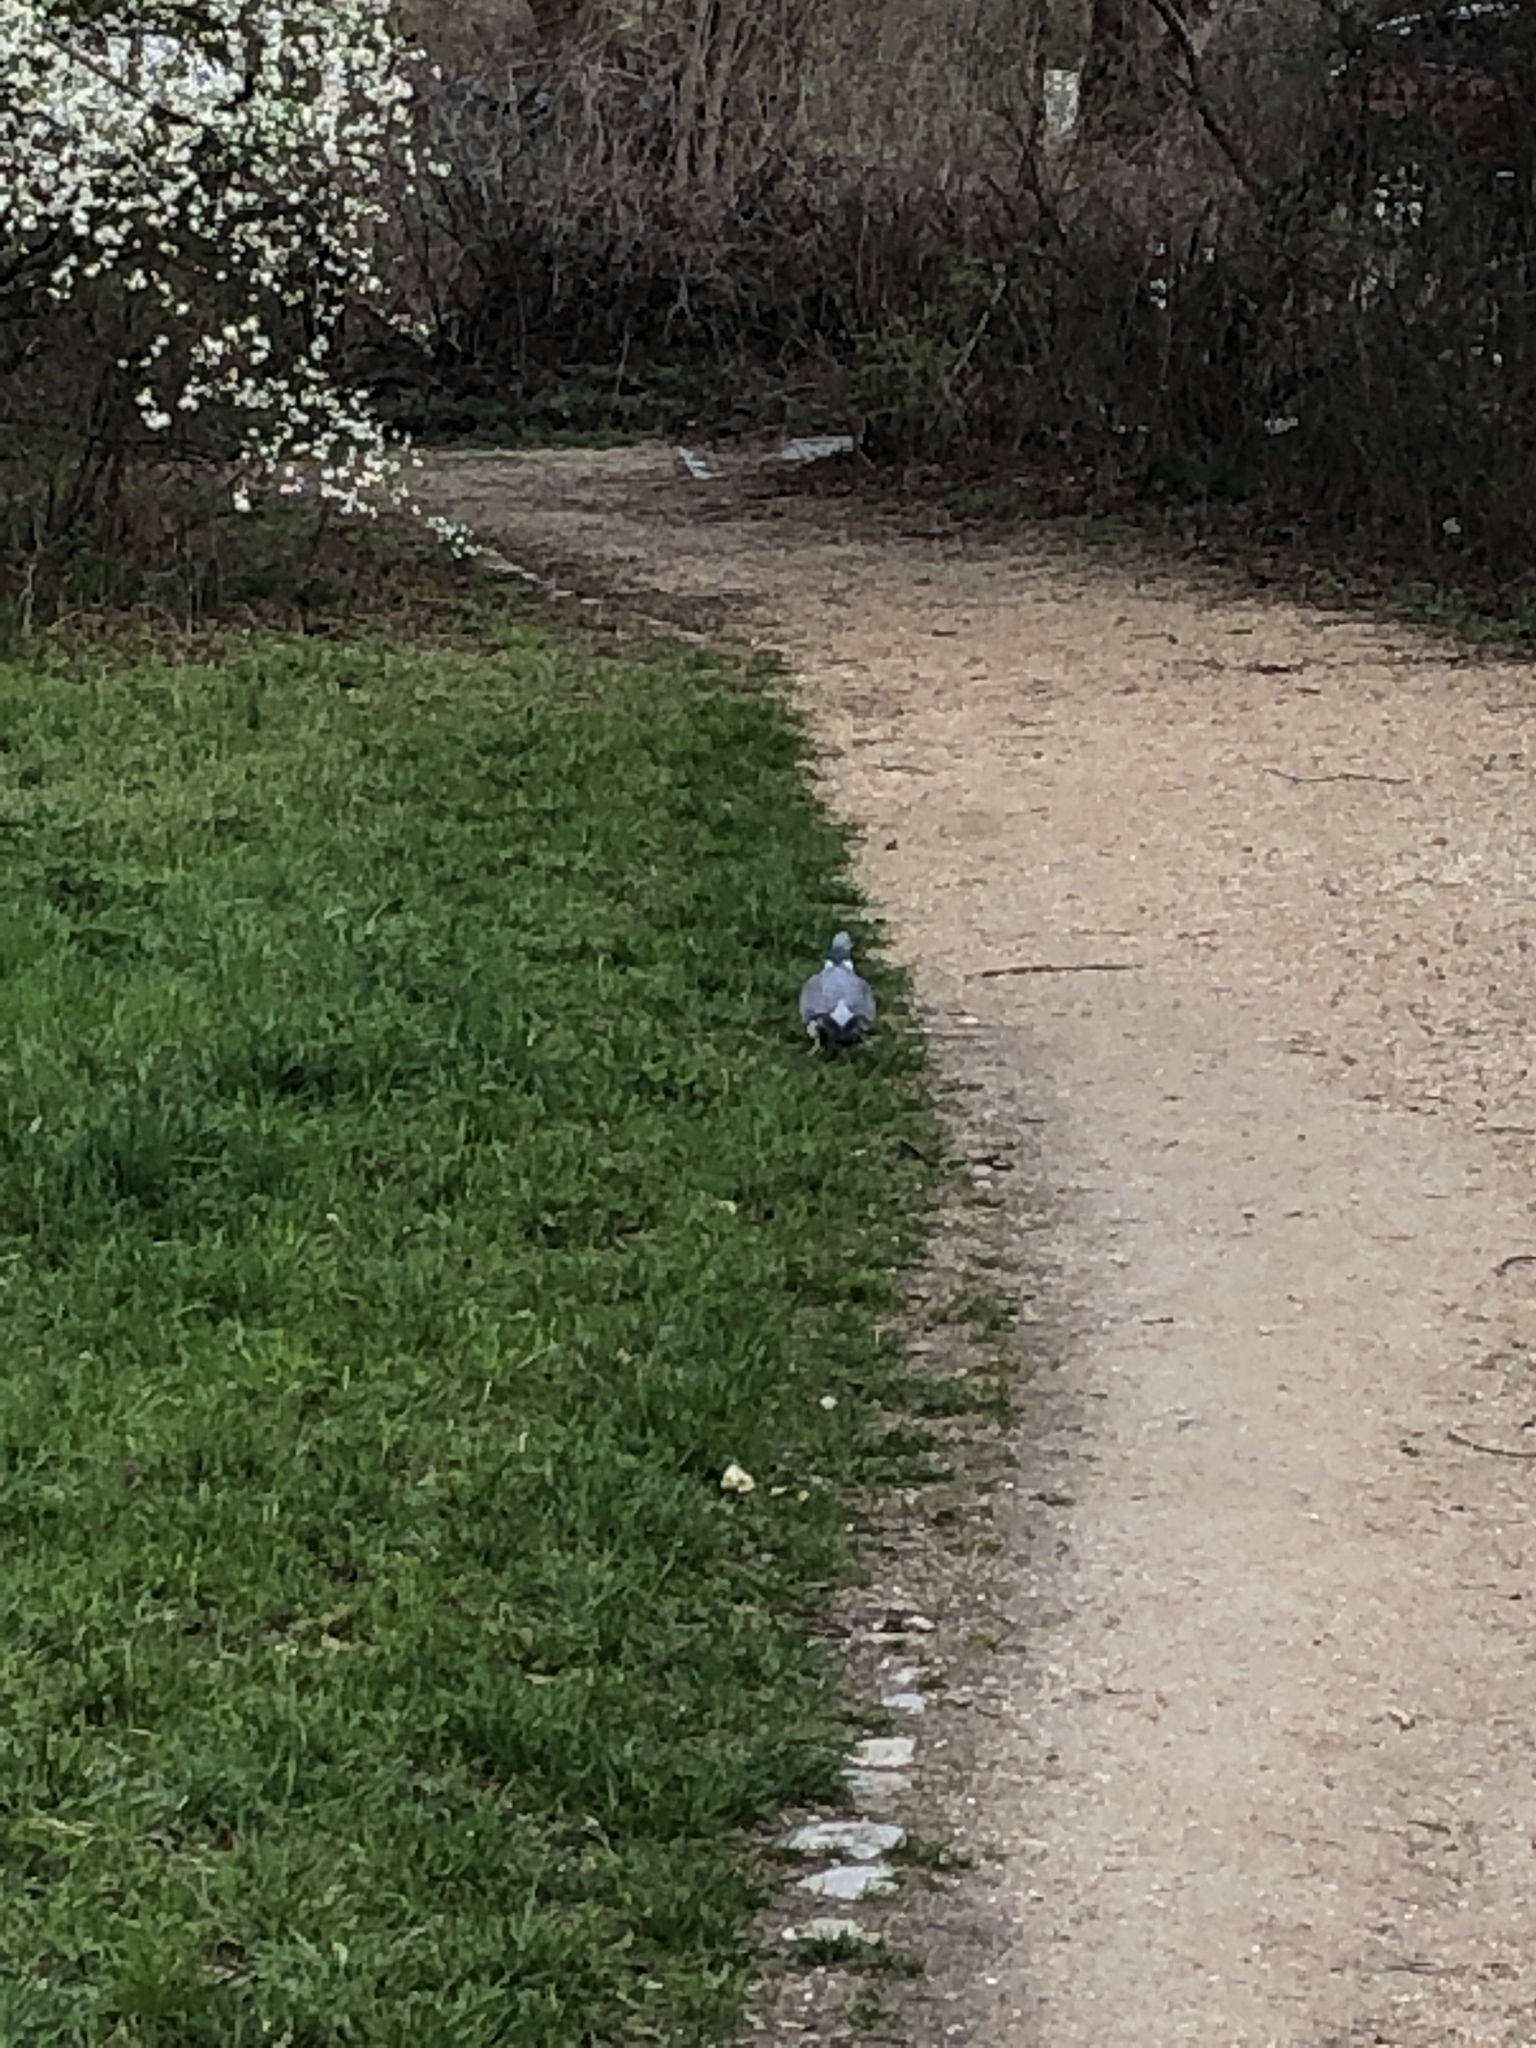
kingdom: Animalia
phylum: Chordata
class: Aves
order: Columbiformes
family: Columbidae
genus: Columba
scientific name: Columba palumbus
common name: Common wood pigeon
